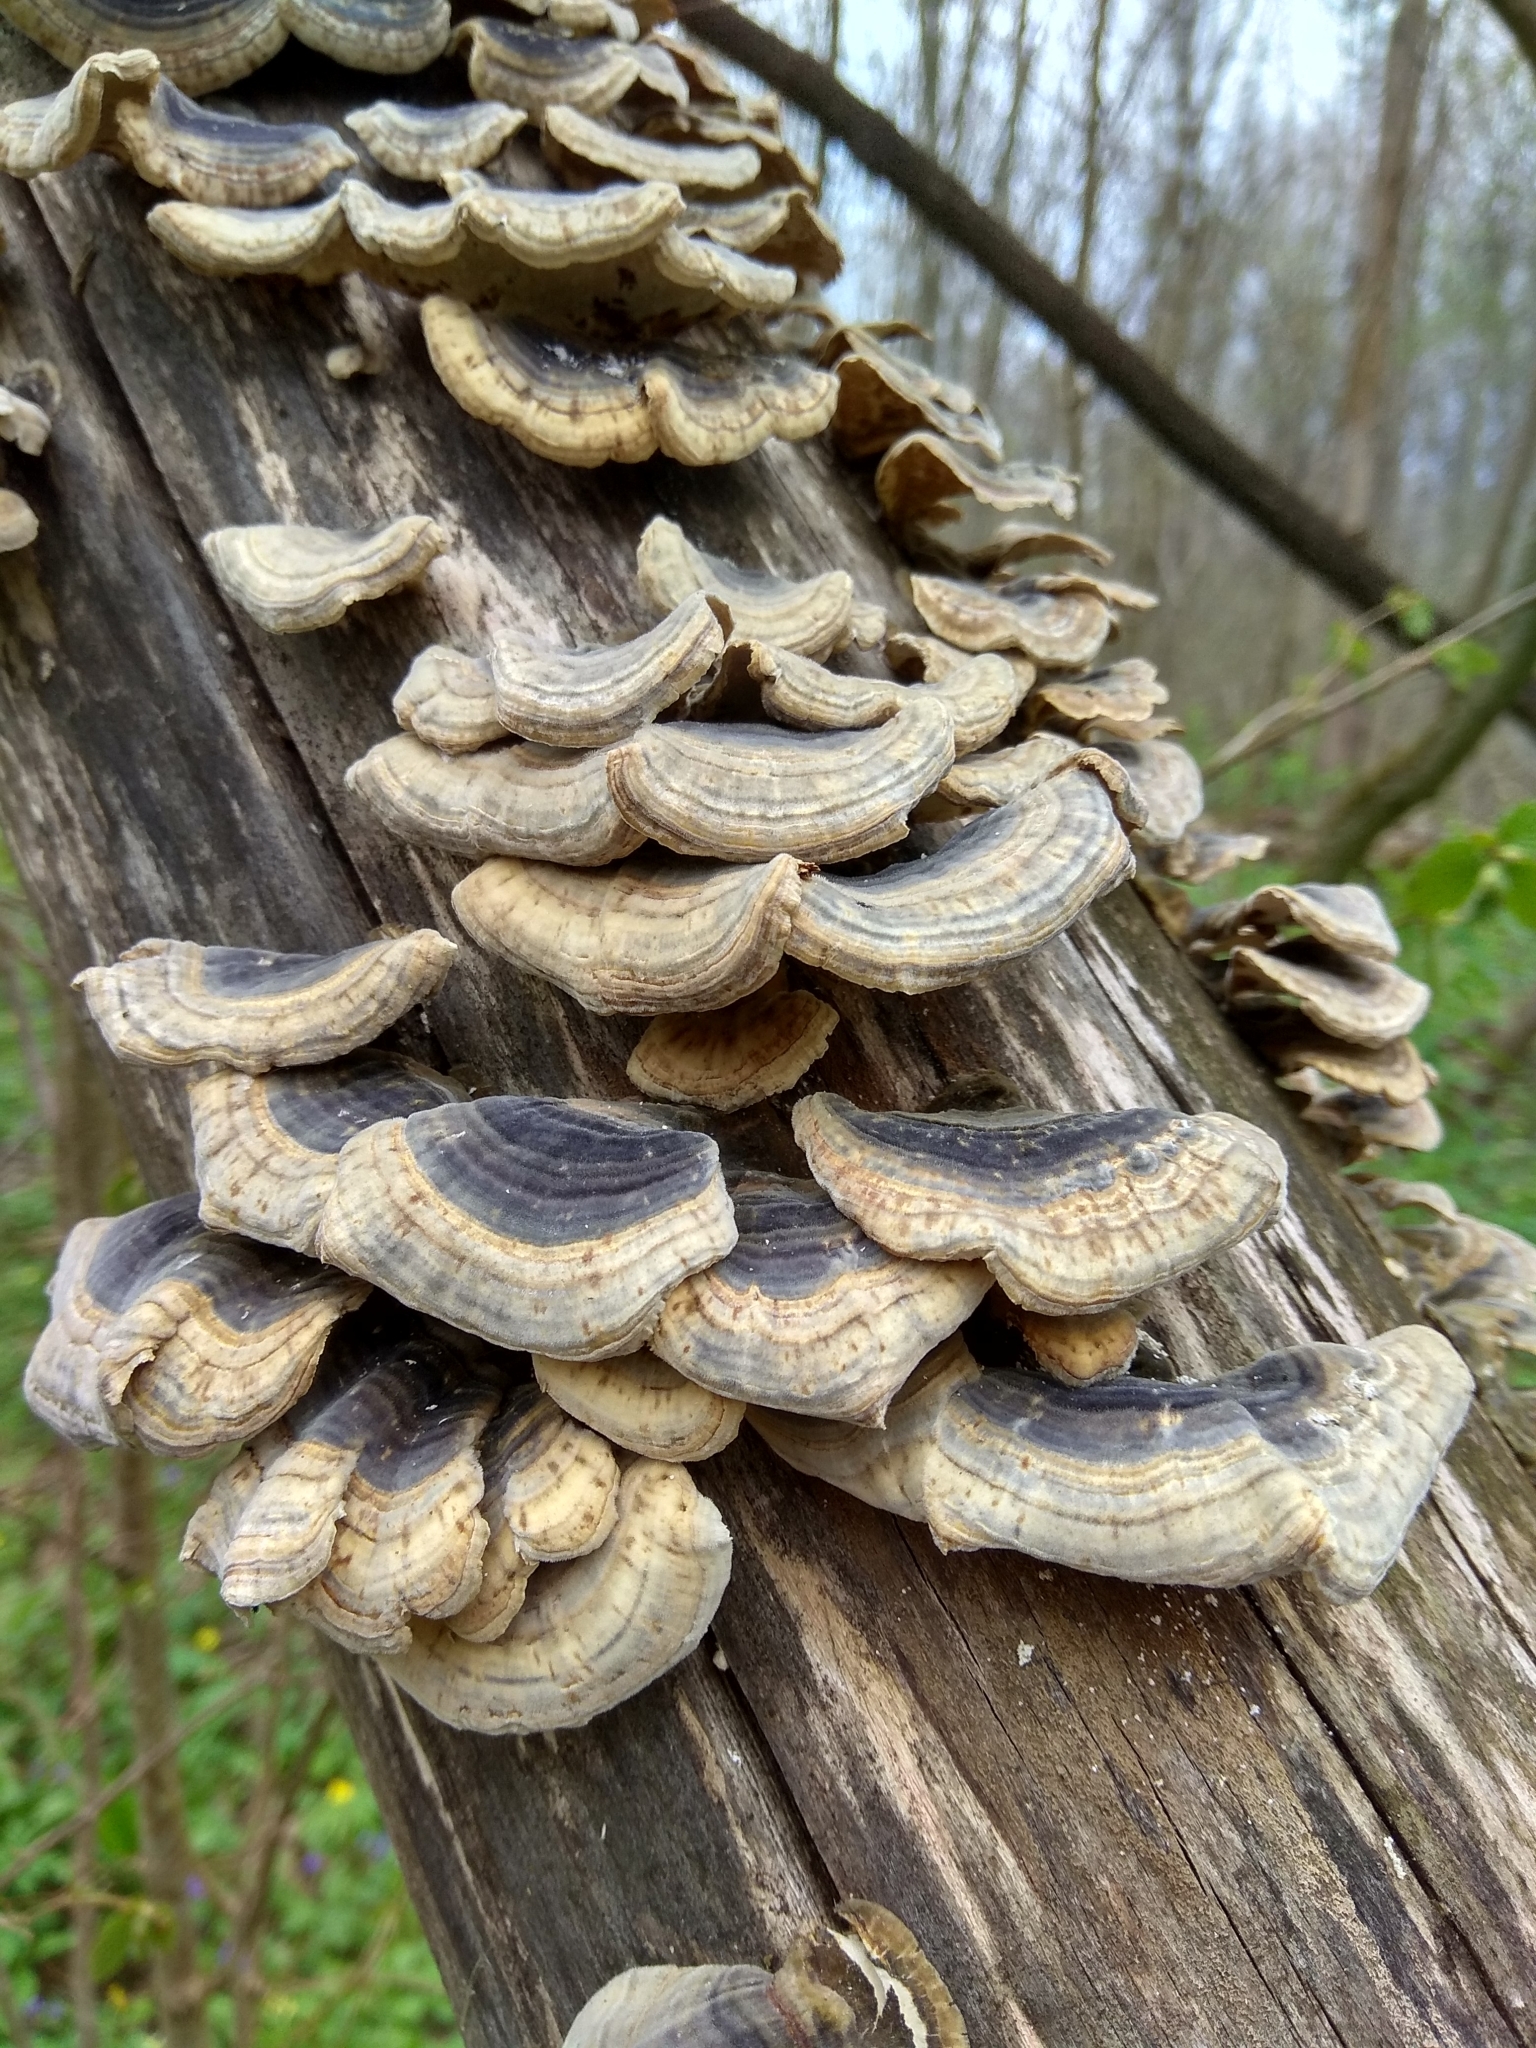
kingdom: Fungi
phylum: Basidiomycota
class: Agaricomycetes
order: Polyporales
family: Polyporaceae
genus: Trametes
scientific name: Trametes versicolor
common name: Turkeytail
